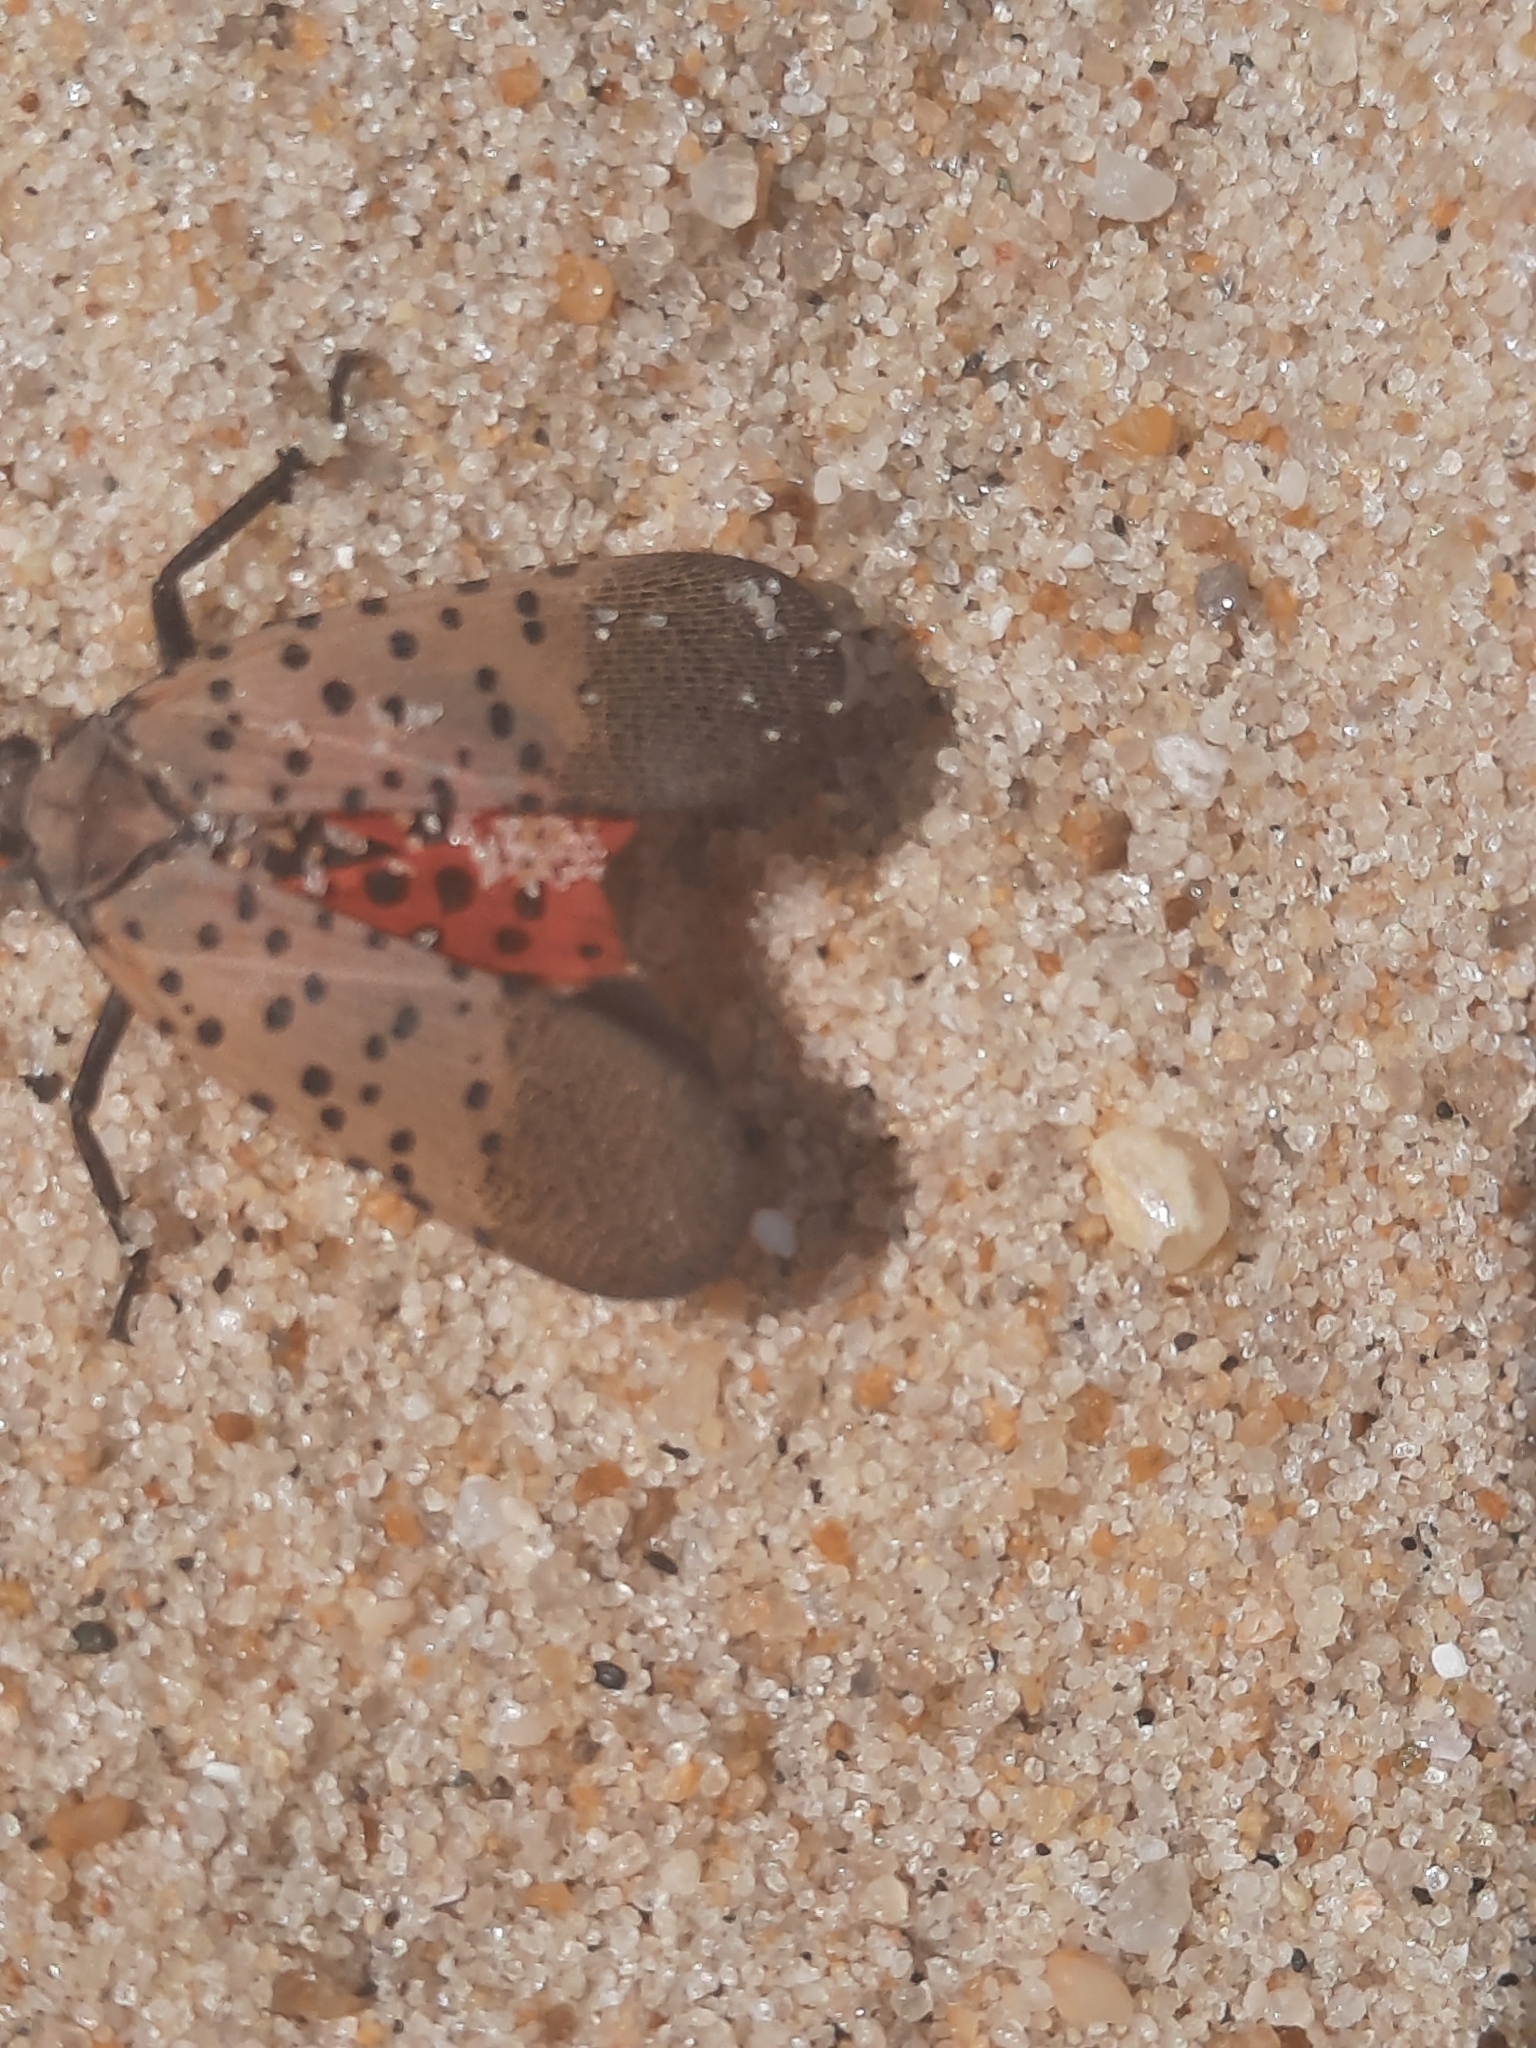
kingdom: Animalia
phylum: Arthropoda
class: Insecta
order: Hemiptera
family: Fulgoridae
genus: Lycorma
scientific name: Lycorma delicatula
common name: Spotted lanternfly
